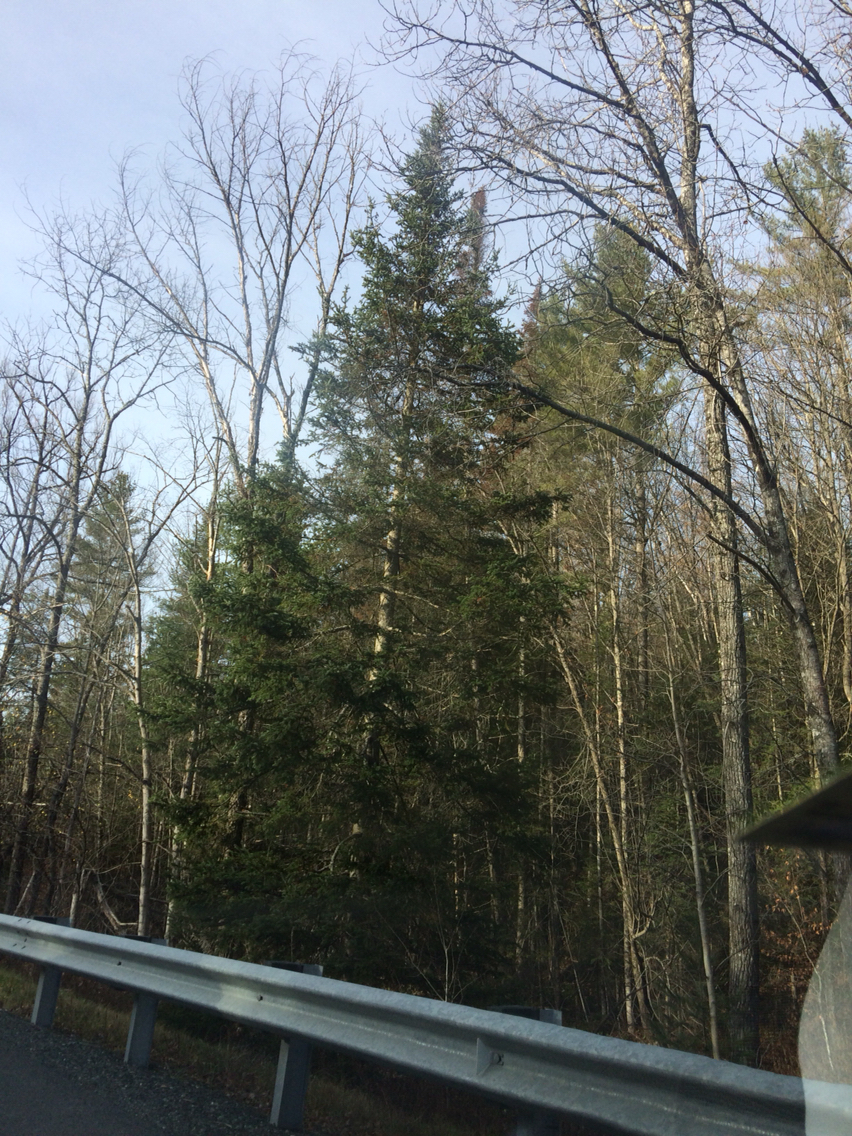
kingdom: Plantae
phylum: Tracheophyta
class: Pinopsida
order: Pinales
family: Pinaceae
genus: Abies
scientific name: Abies balsamea
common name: Balsam fir
